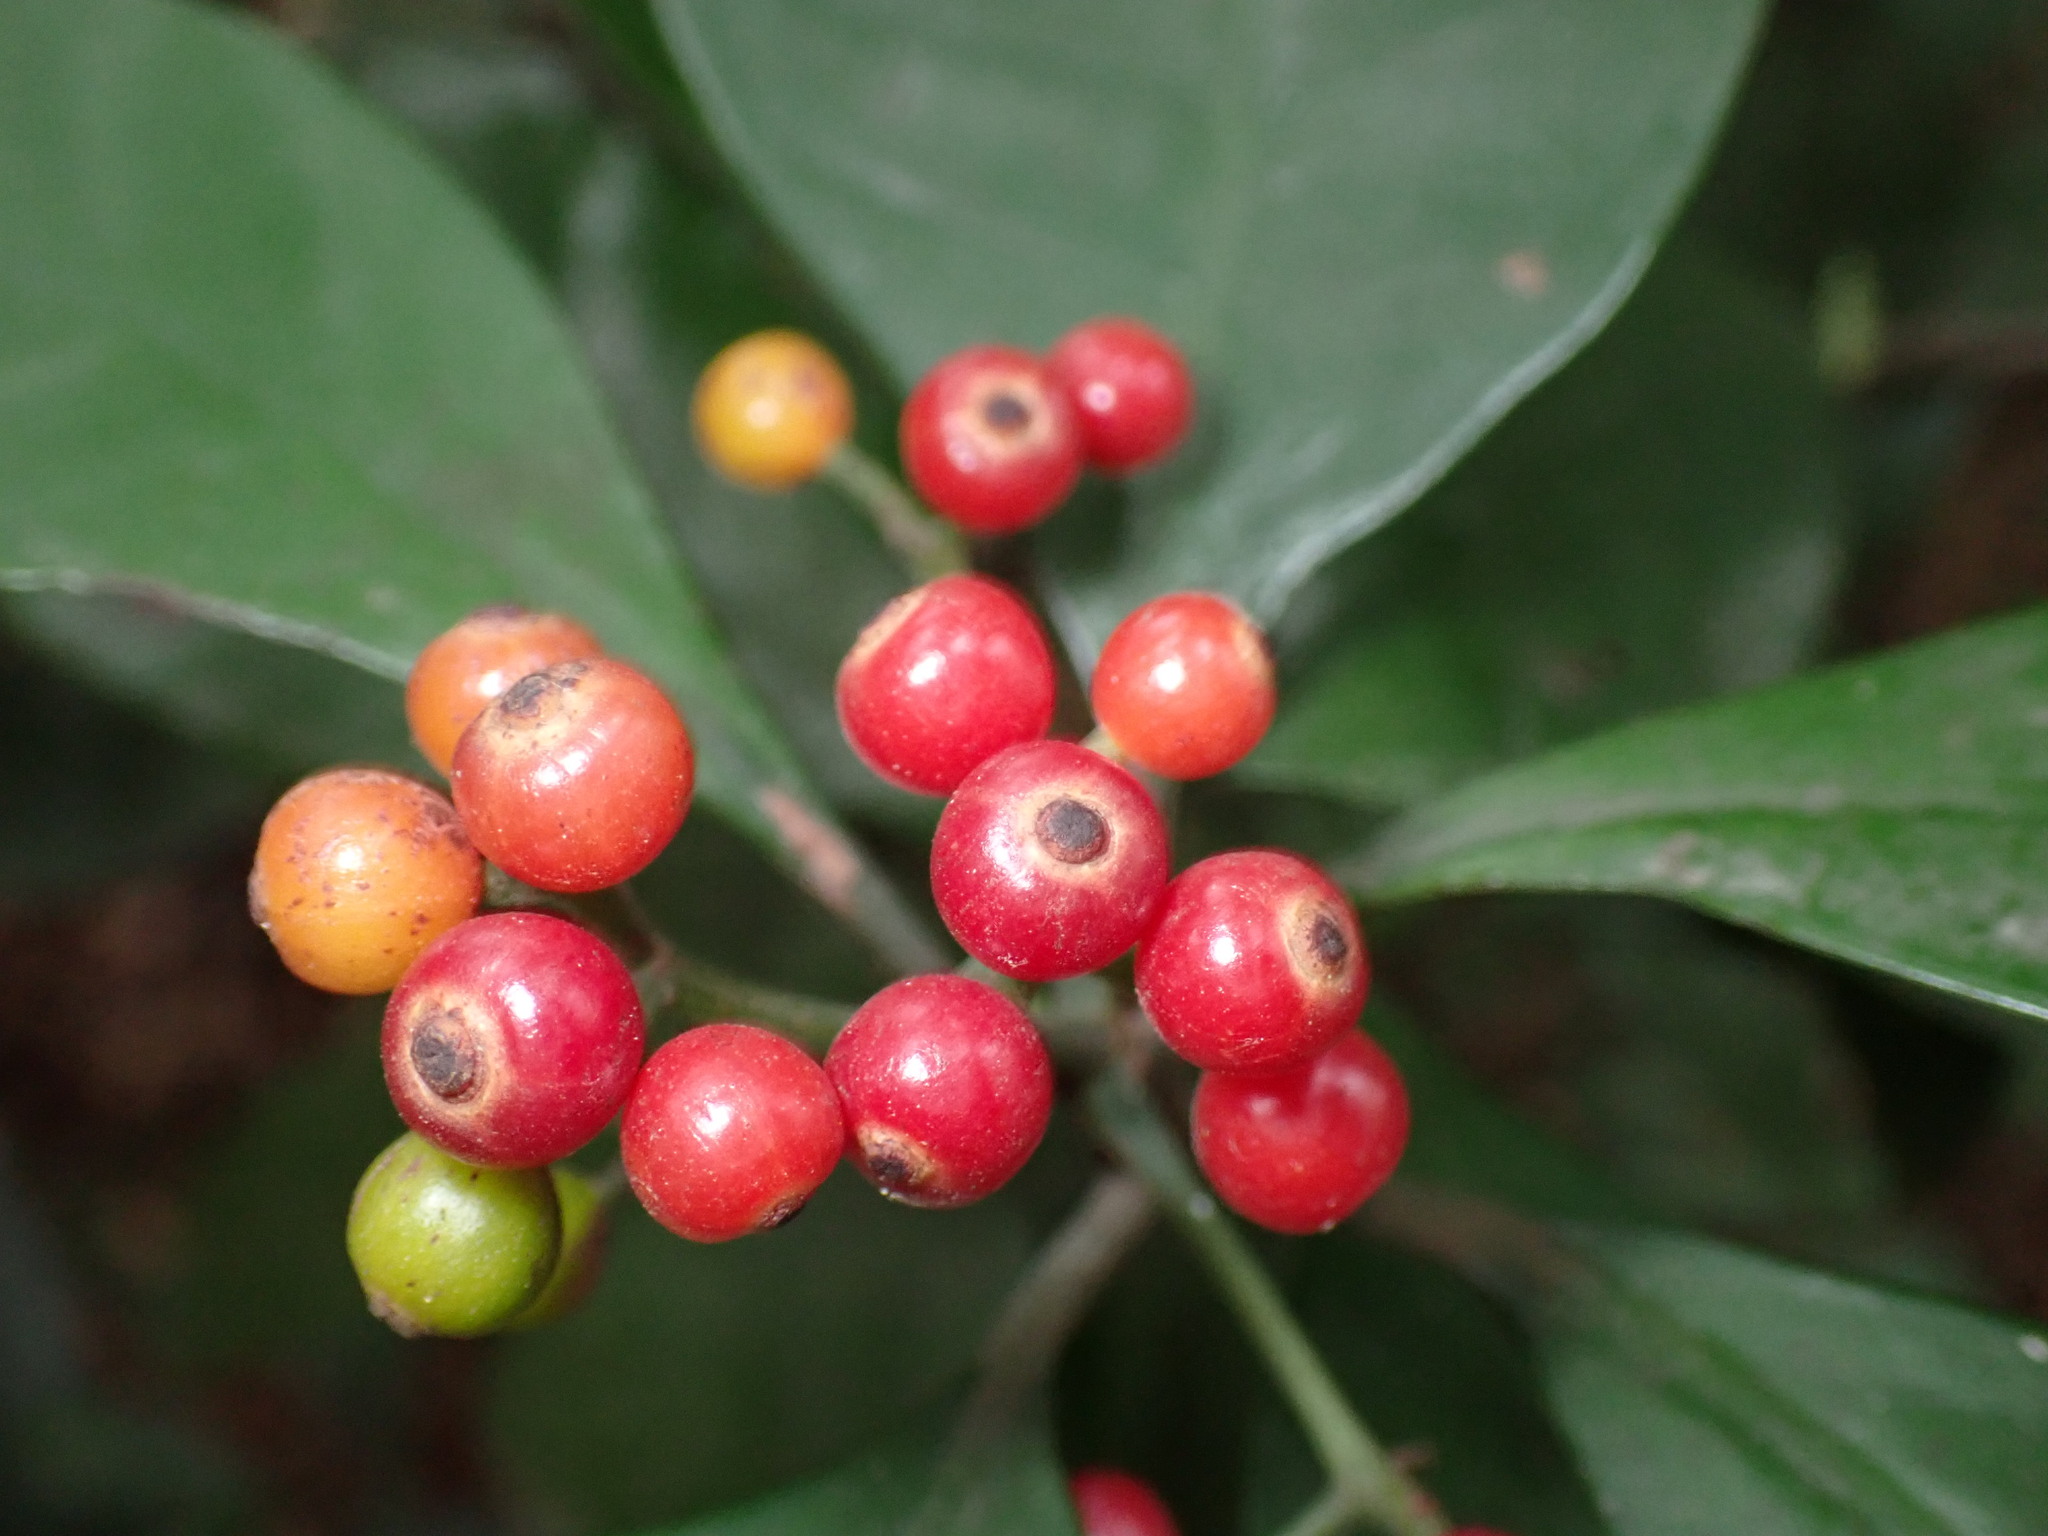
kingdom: Plantae
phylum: Tracheophyta
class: Magnoliopsida
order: Gentianales
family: Rubiaceae
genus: Psychotria
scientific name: Psychotria asiatica
